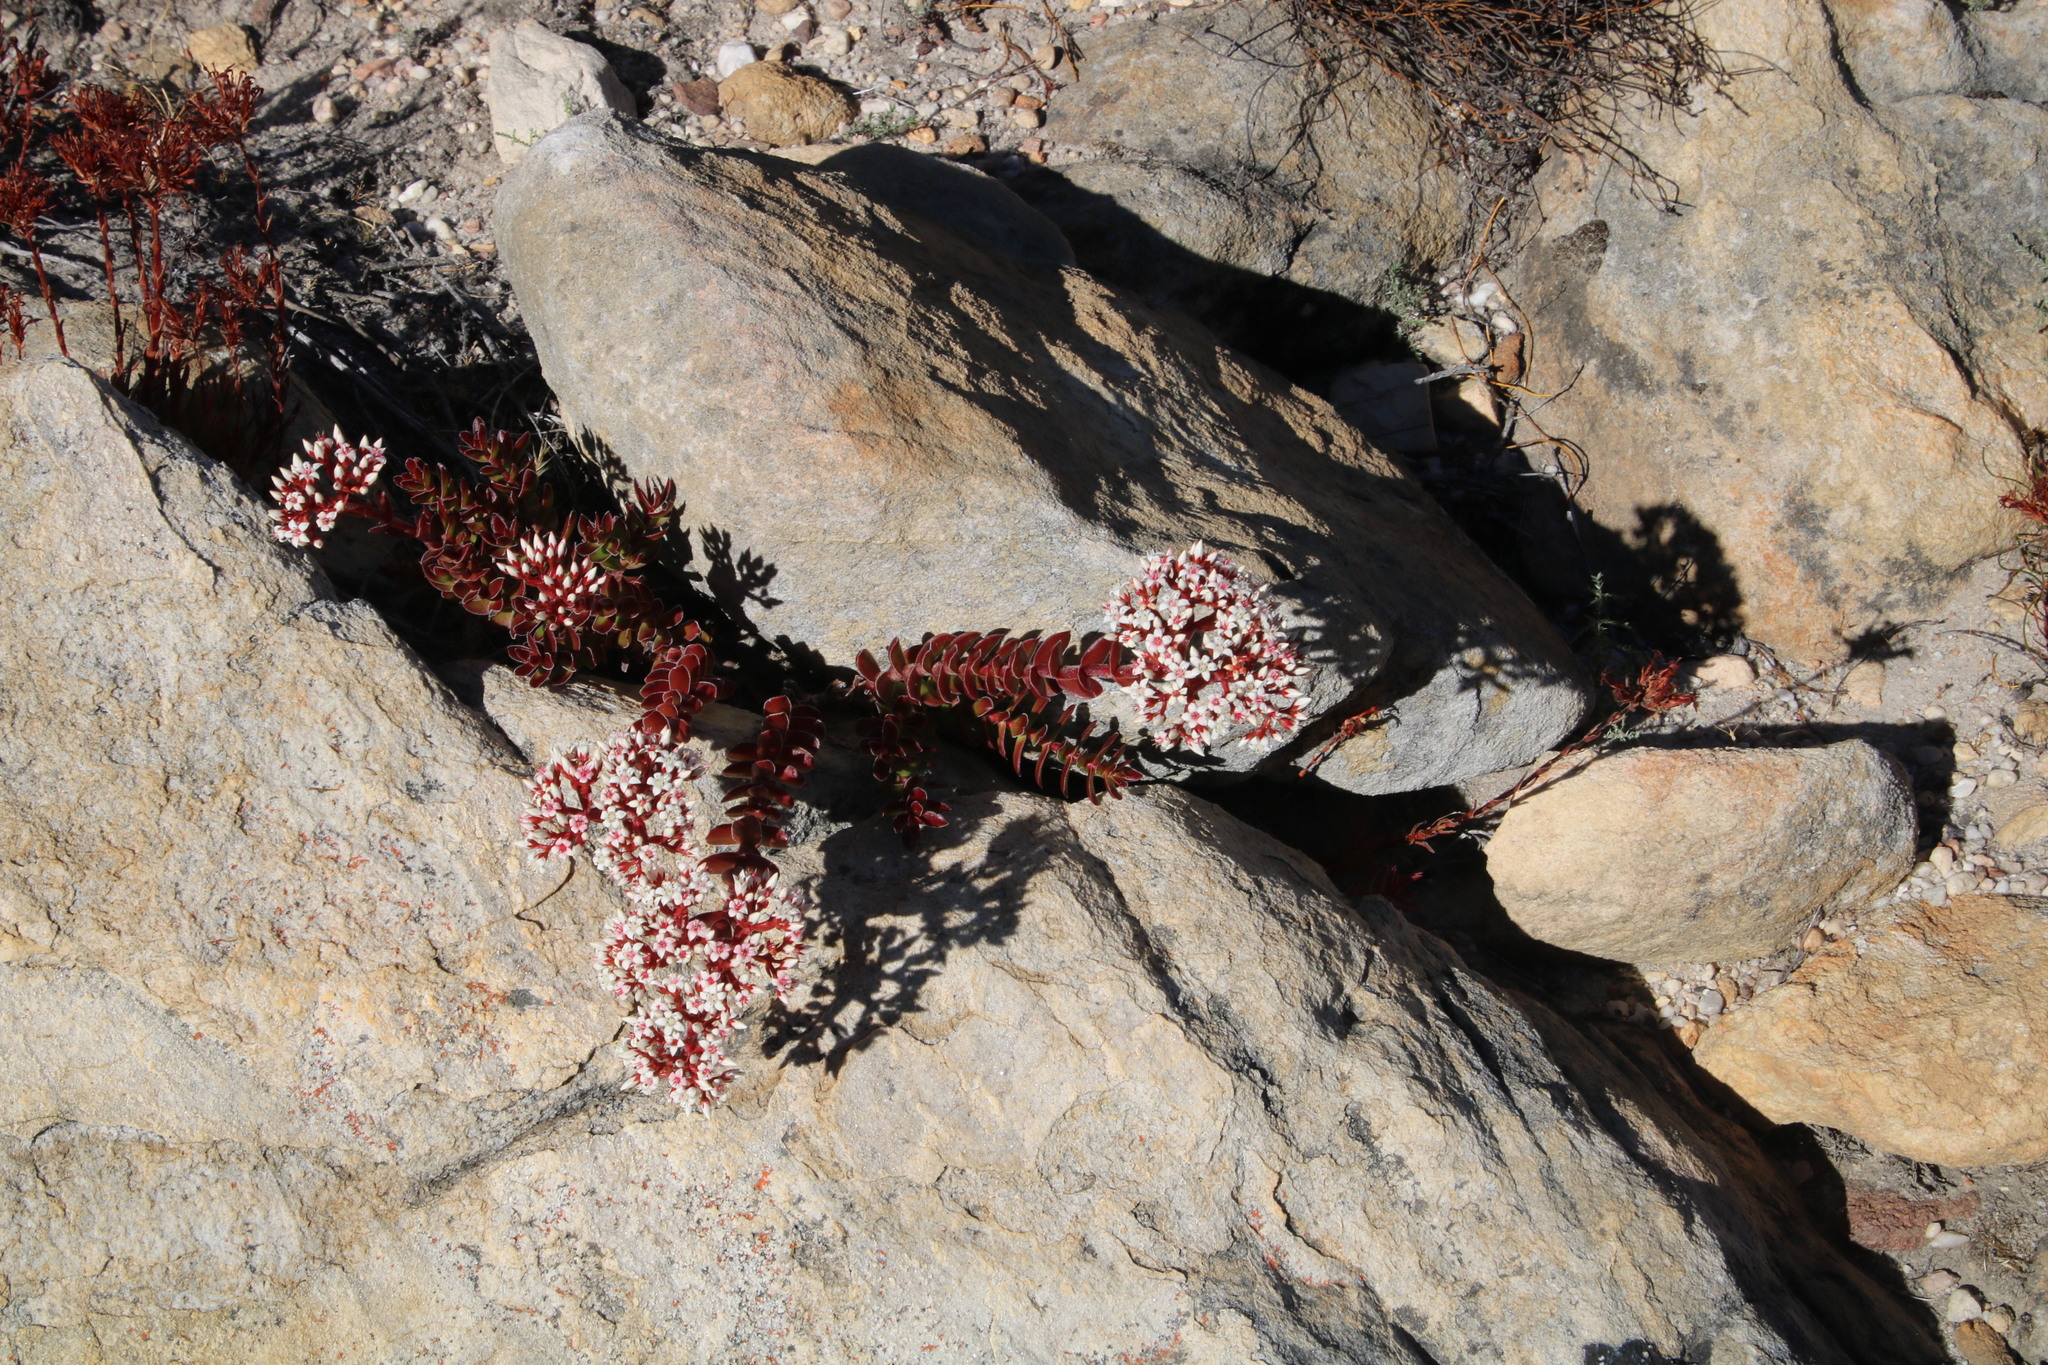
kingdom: Plantae
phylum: Tracheophyta
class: Magnoliopsida
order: Saxifragales
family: Crassulaceae
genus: Crassula
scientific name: Crassula undulata
